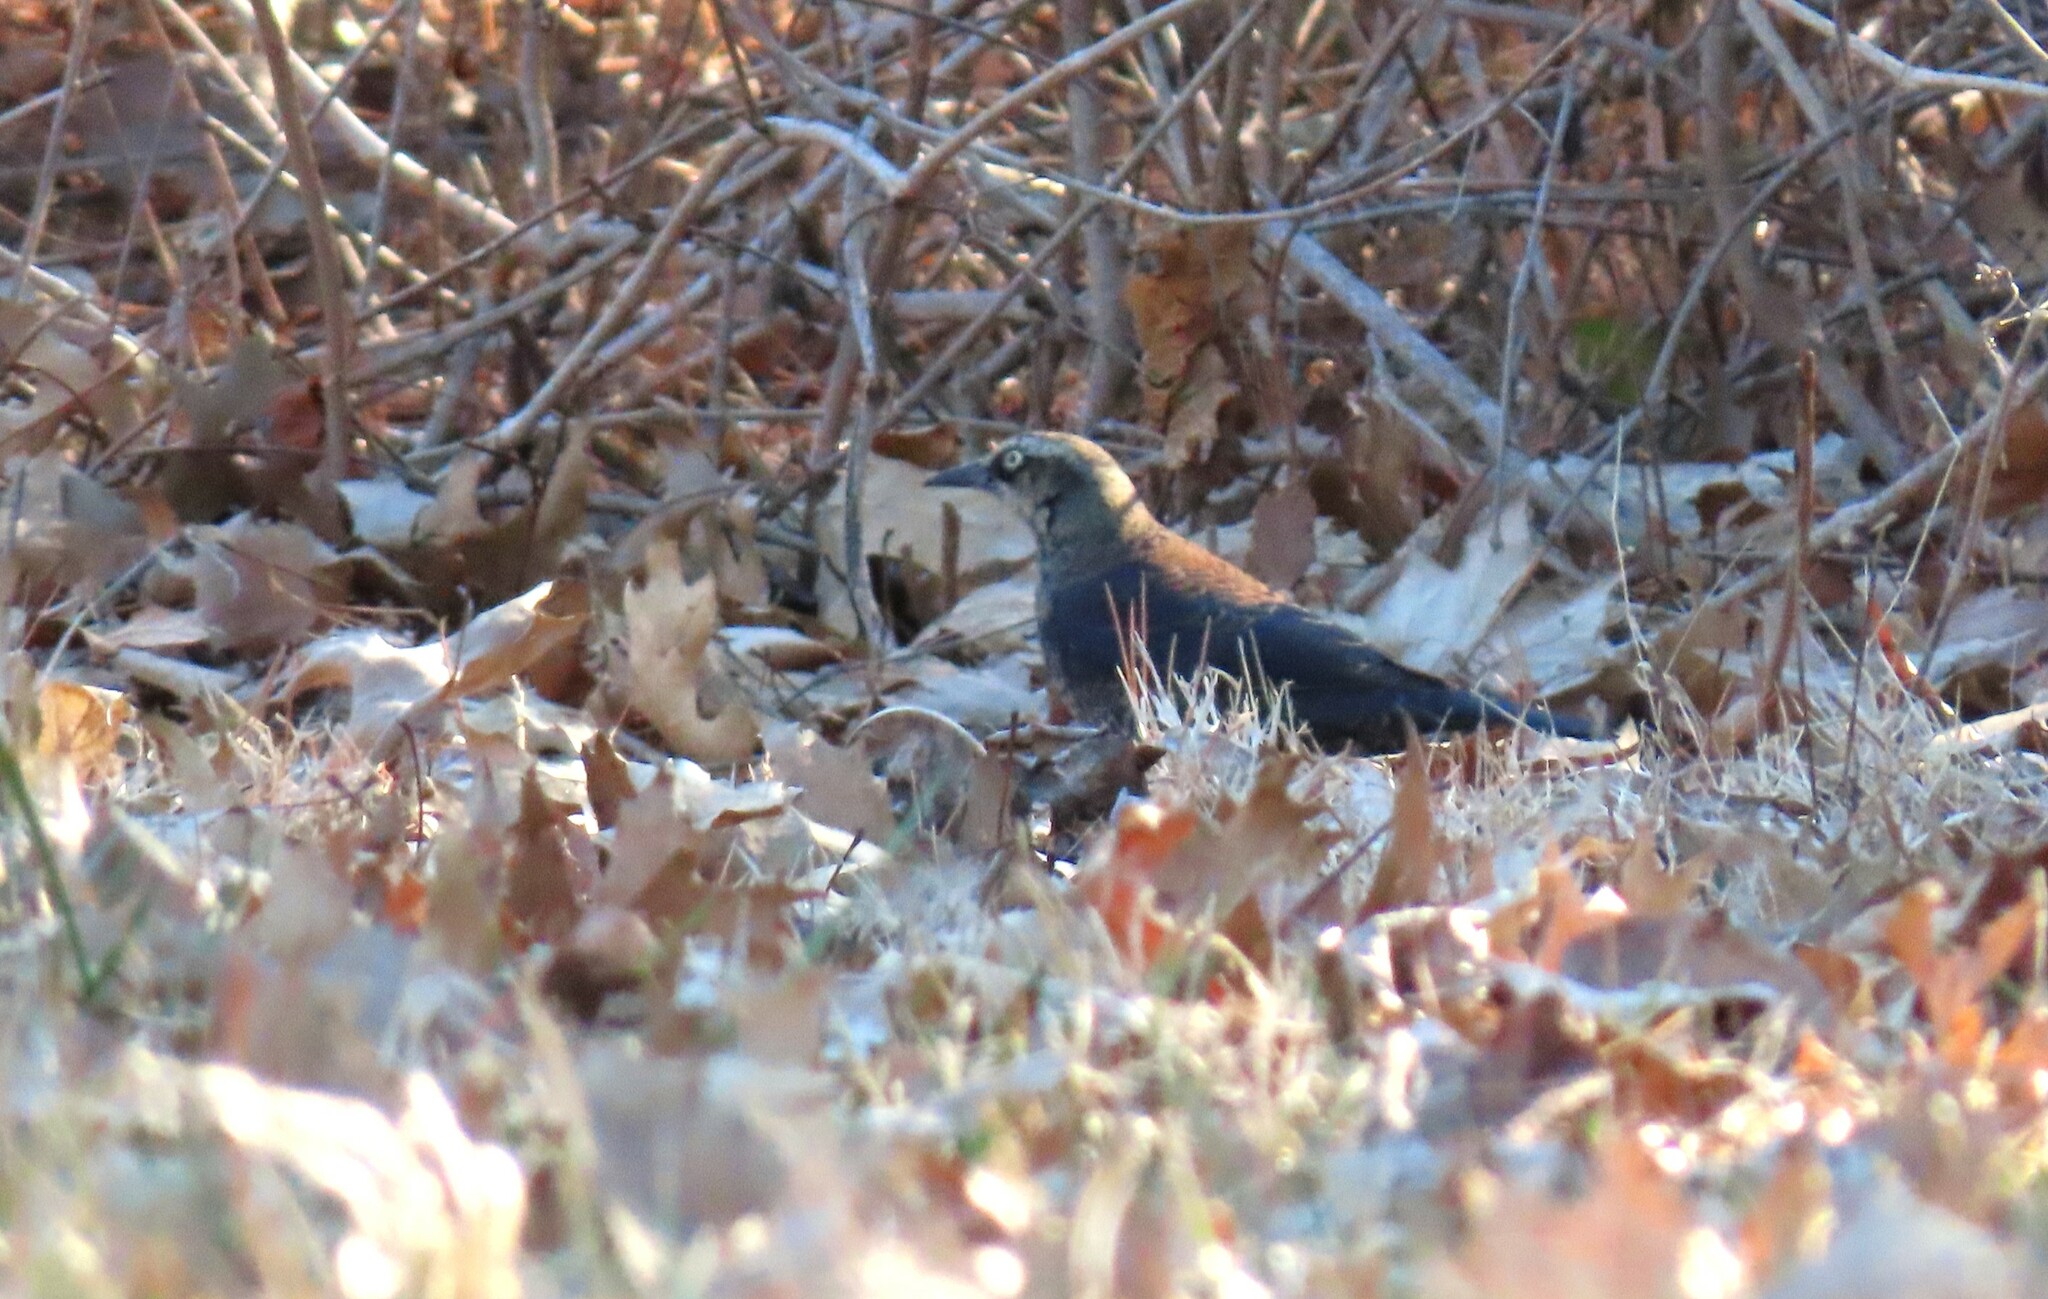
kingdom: Animalia
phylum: Chordata
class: Aves
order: Passeriformes
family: Icteridae
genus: Euphagus
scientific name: Euphagus carolinus
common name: Rusty blackbird
